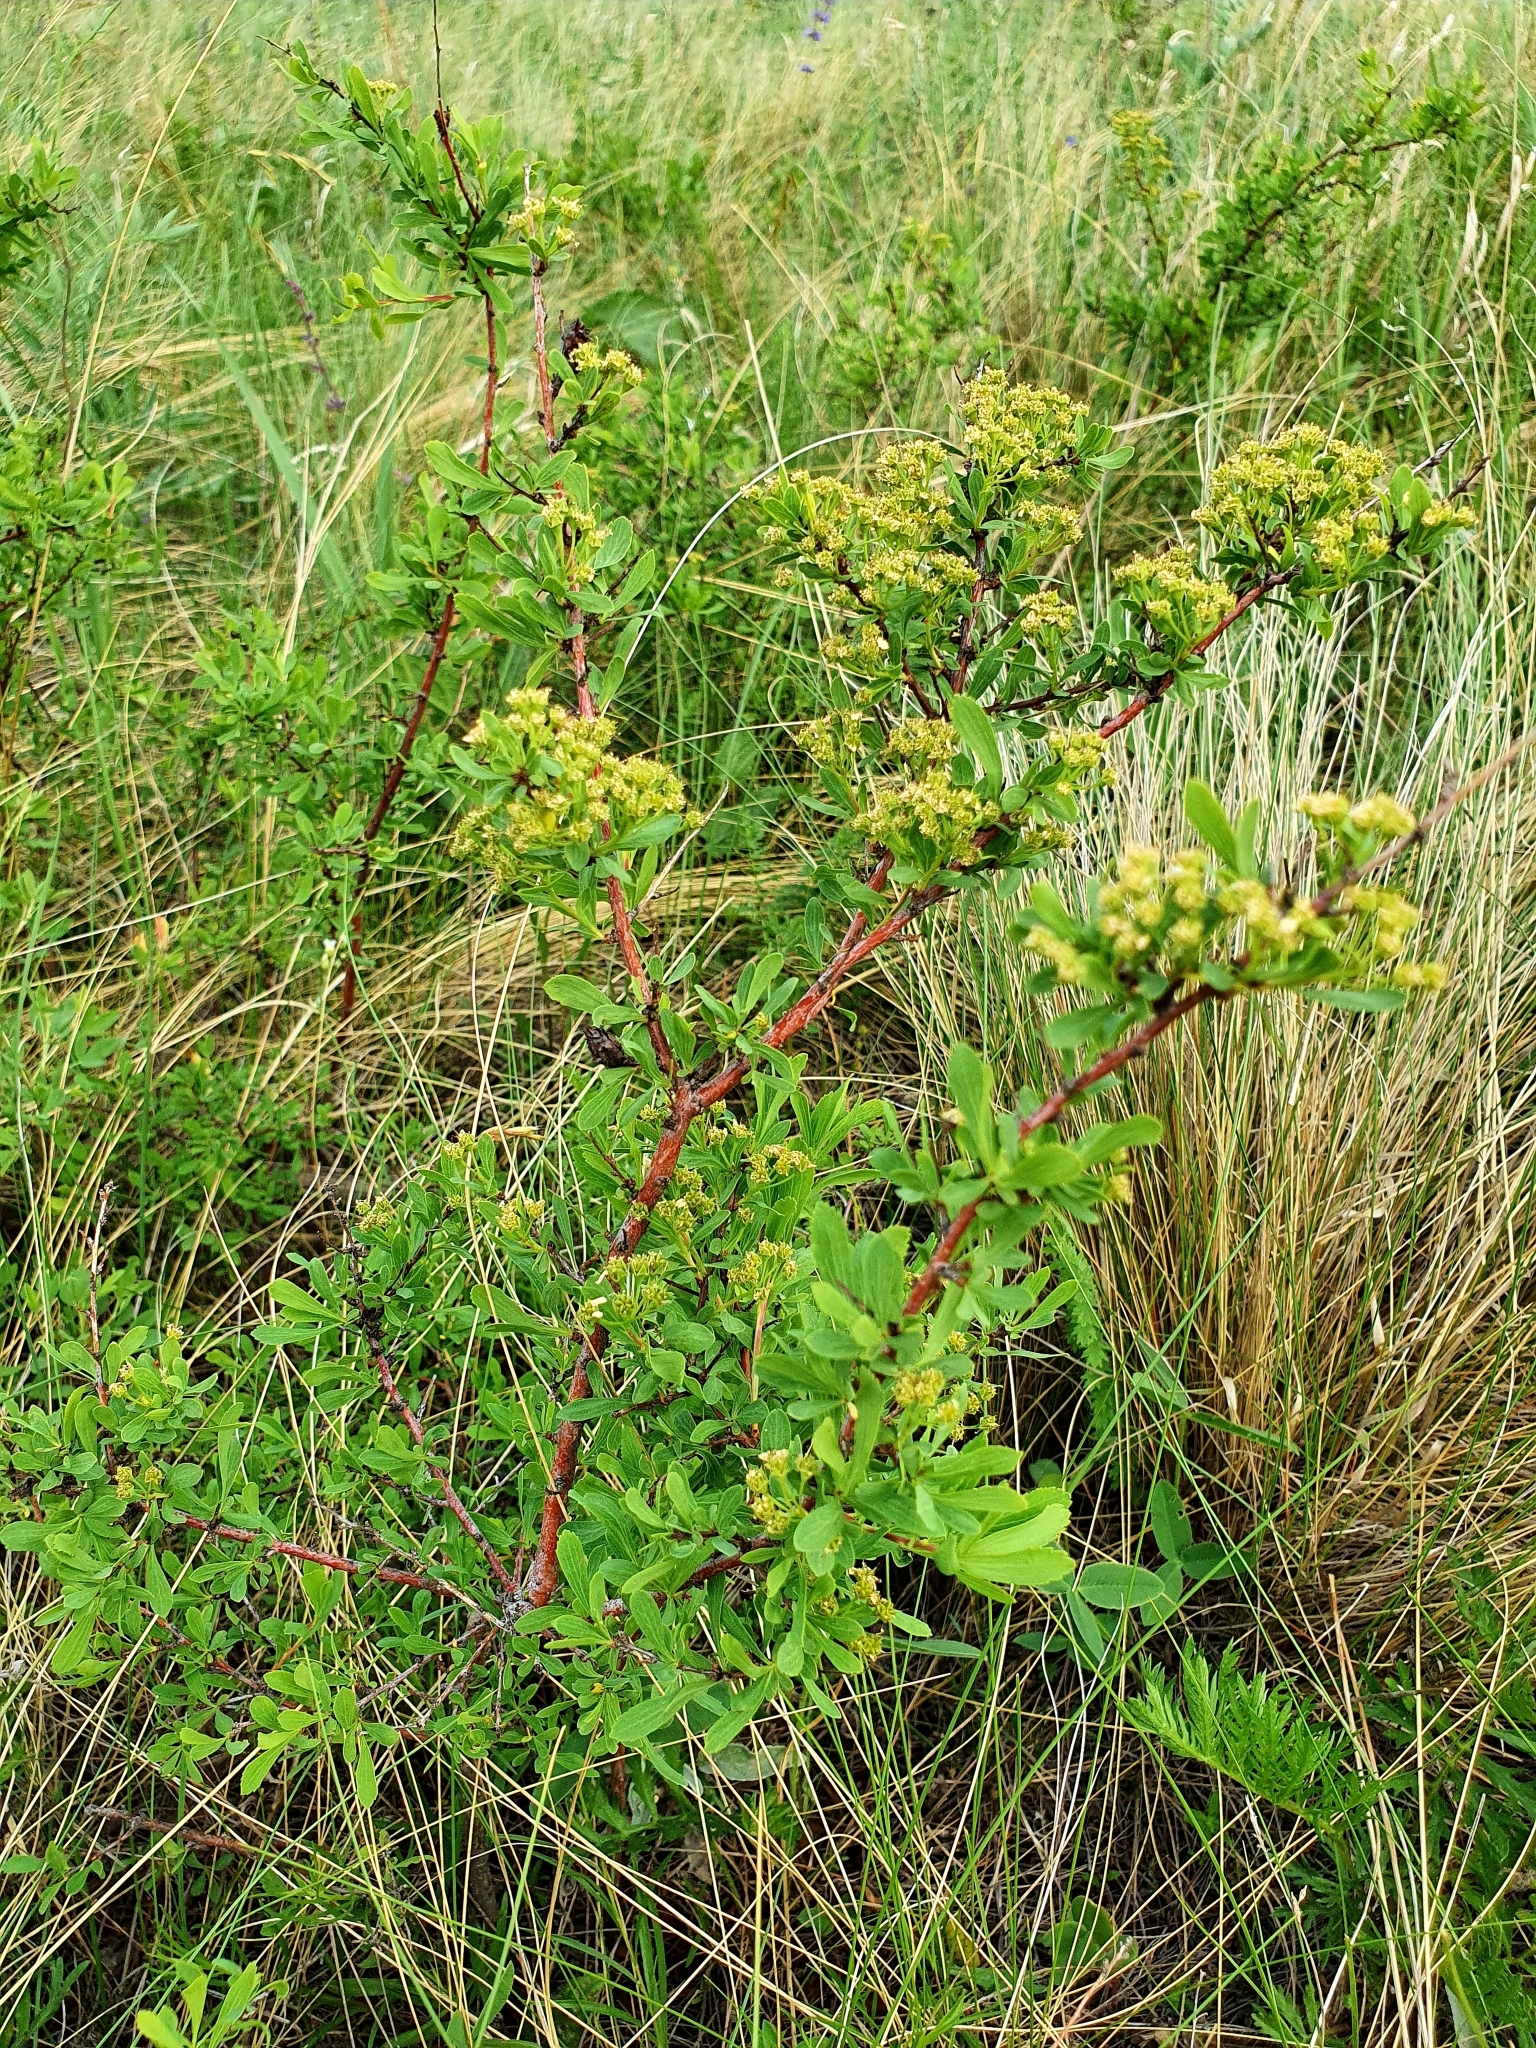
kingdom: Plantae
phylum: Tracheophyta
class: Magnoliopsida
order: Rosales
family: Rosaceae
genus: Spiraea
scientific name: Spiraea crenata
